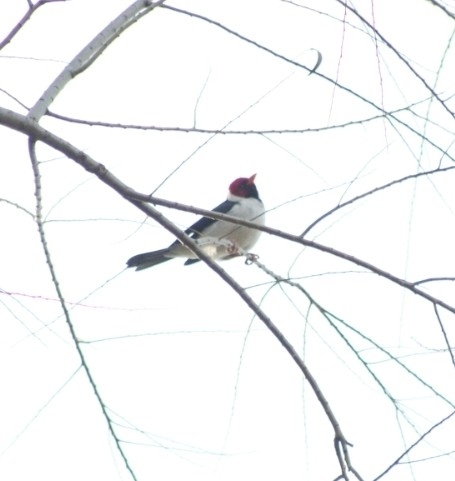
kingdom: Animalia
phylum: Chordata
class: Aves
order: Passeriformes
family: Thraupidae
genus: Paroaria
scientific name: Paroaria capitata
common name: Yellow-billed cardinal
